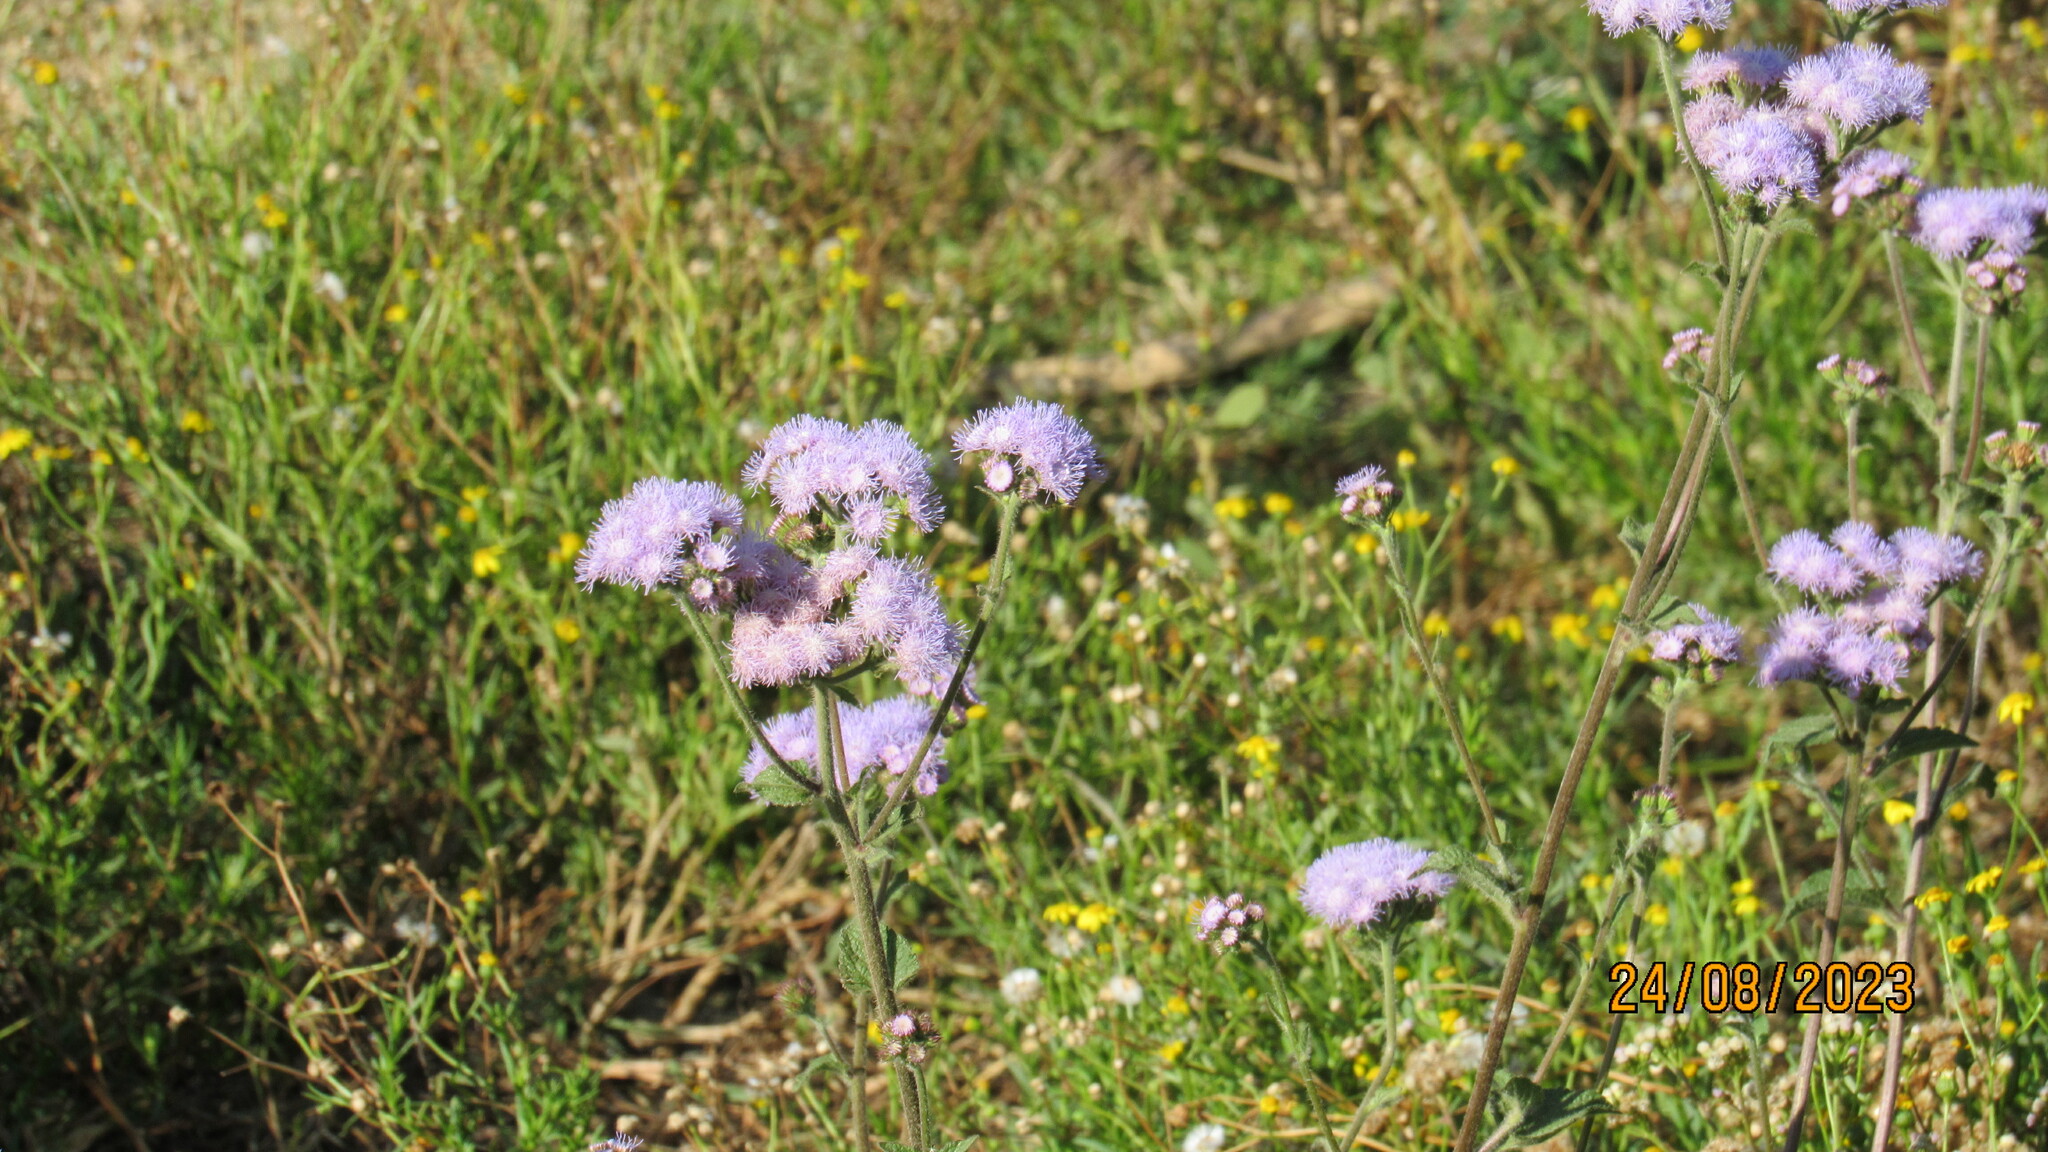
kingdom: Plantae
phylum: Tracheophyta
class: Magnoliopsida
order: Asterales
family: Asteraceae
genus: Ageratum
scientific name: Ageratum houstonianum
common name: Bluemink
